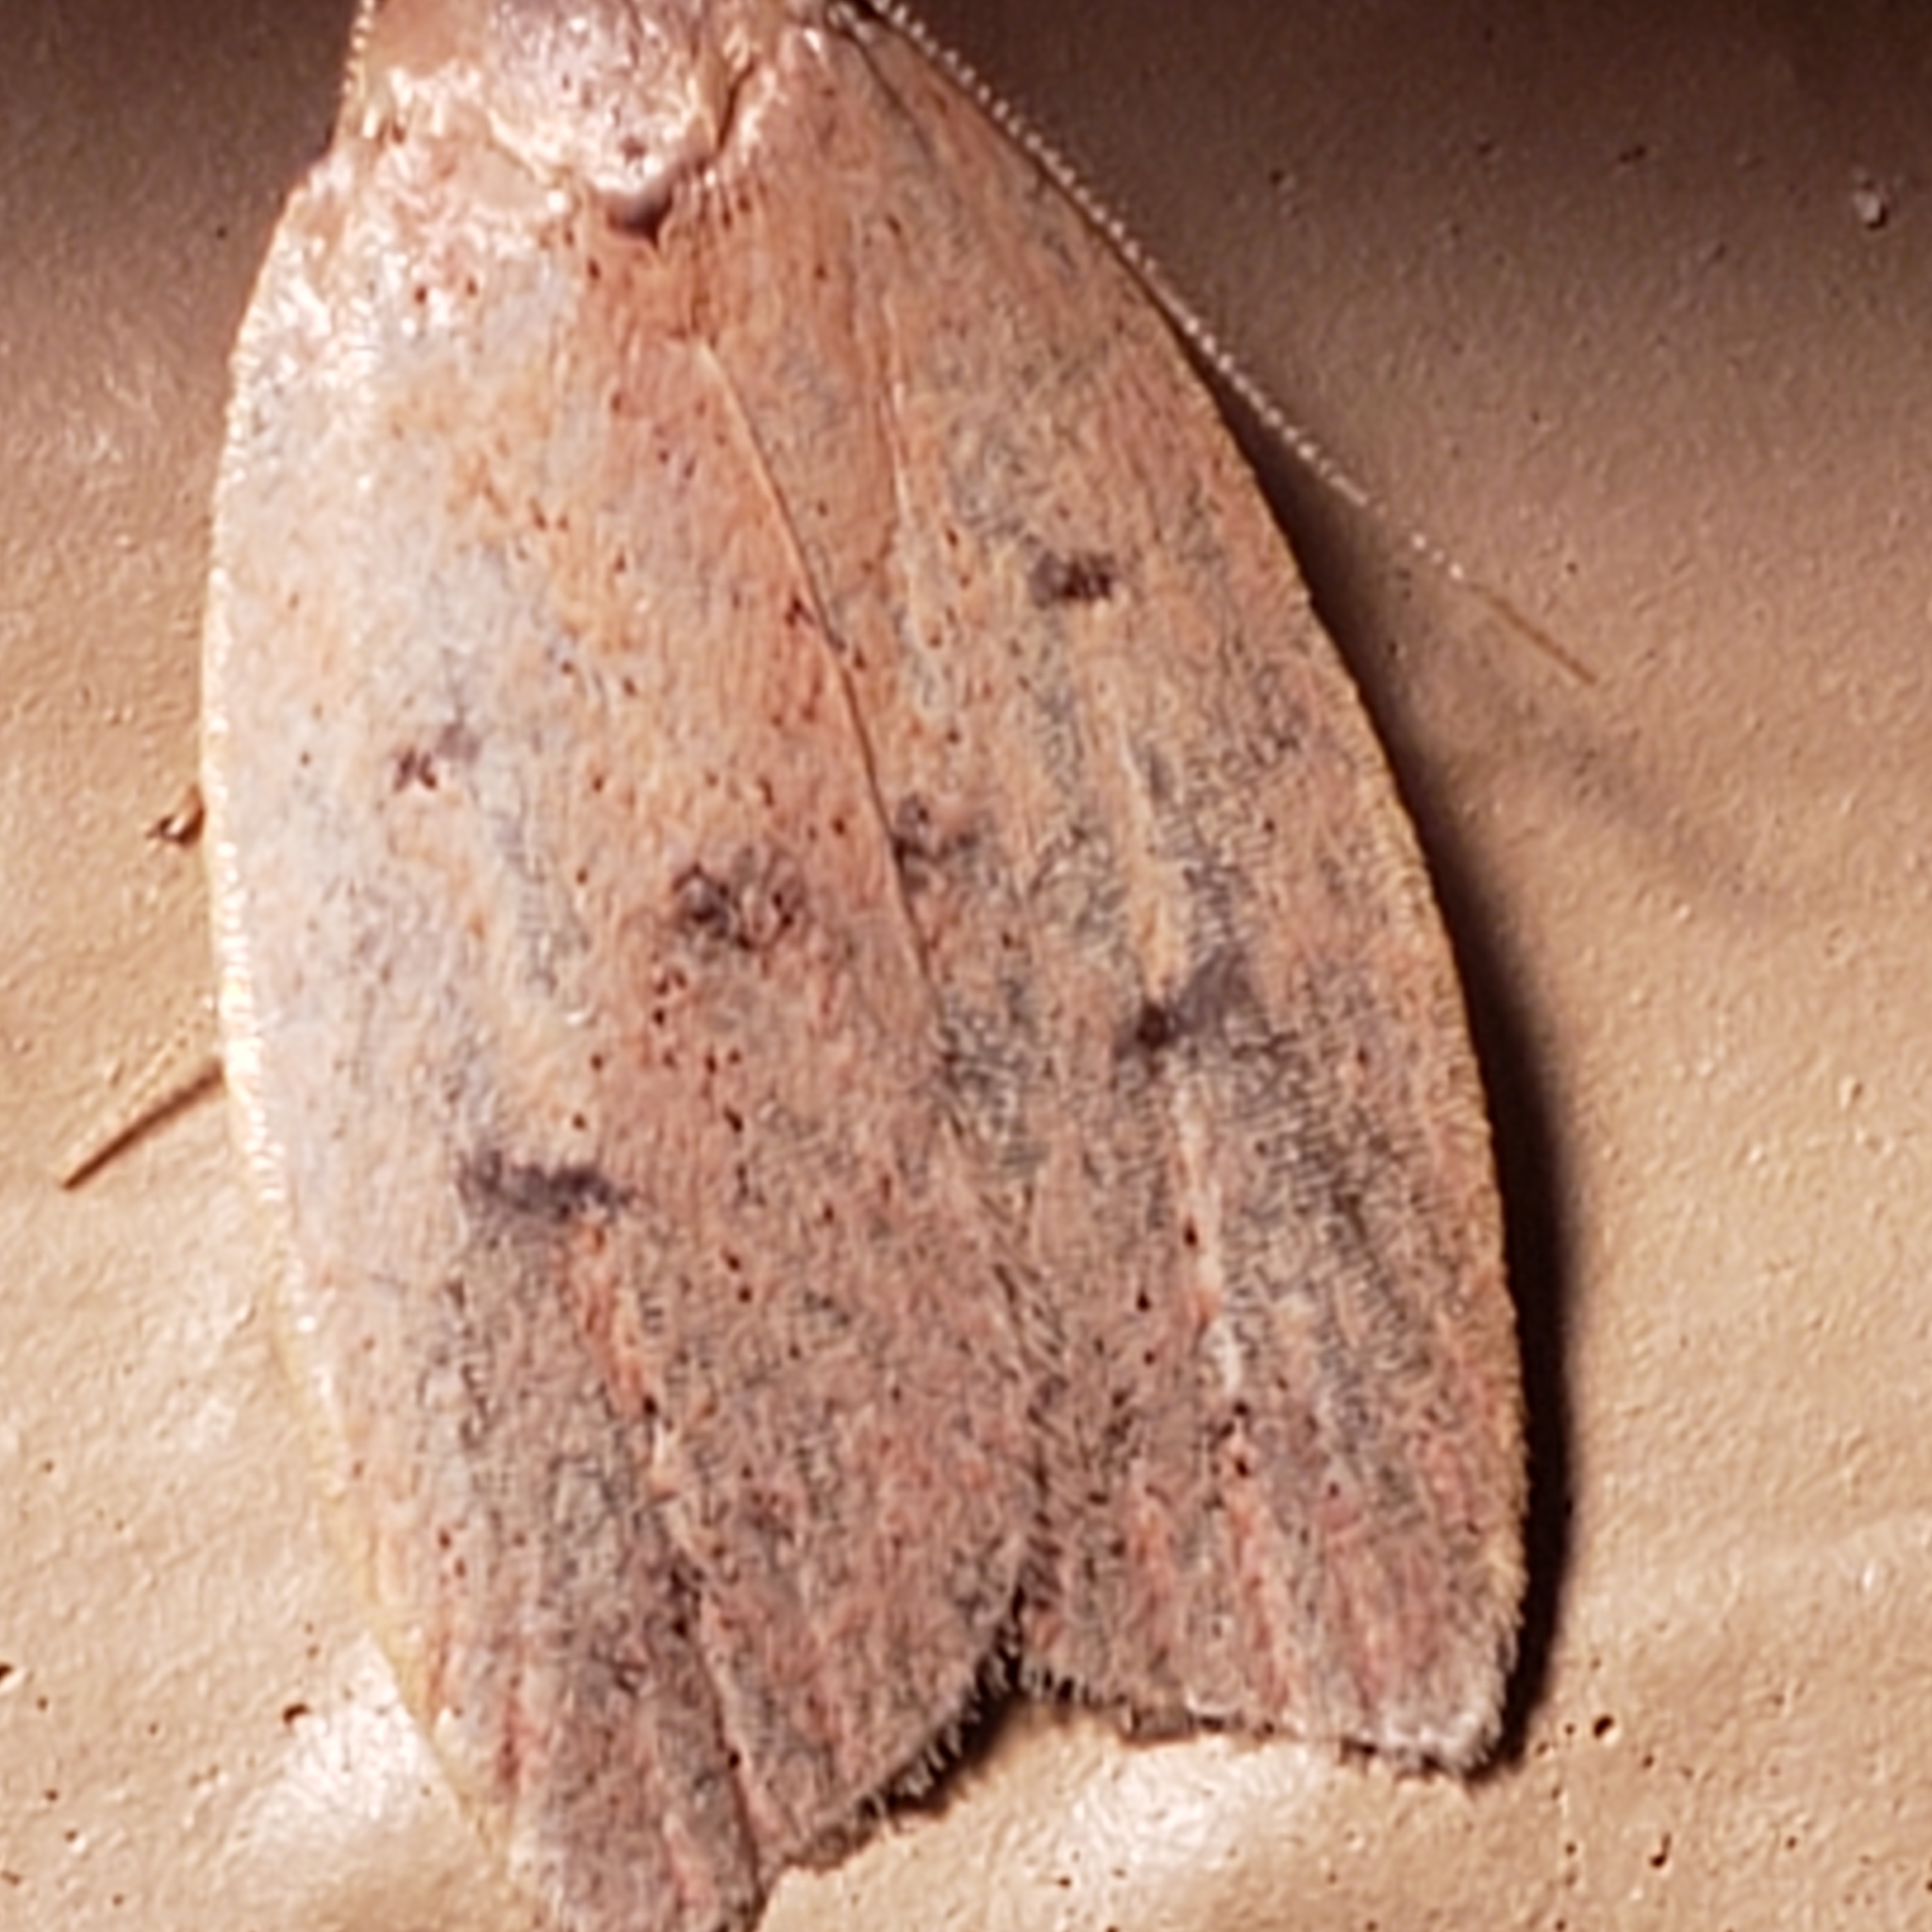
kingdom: Animalia
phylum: Arthropoda
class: Insecta
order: Lepidoptera
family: Peleopodidae
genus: Machimia
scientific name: Machimia tentoriferella
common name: Gold-striped leaftier moth
